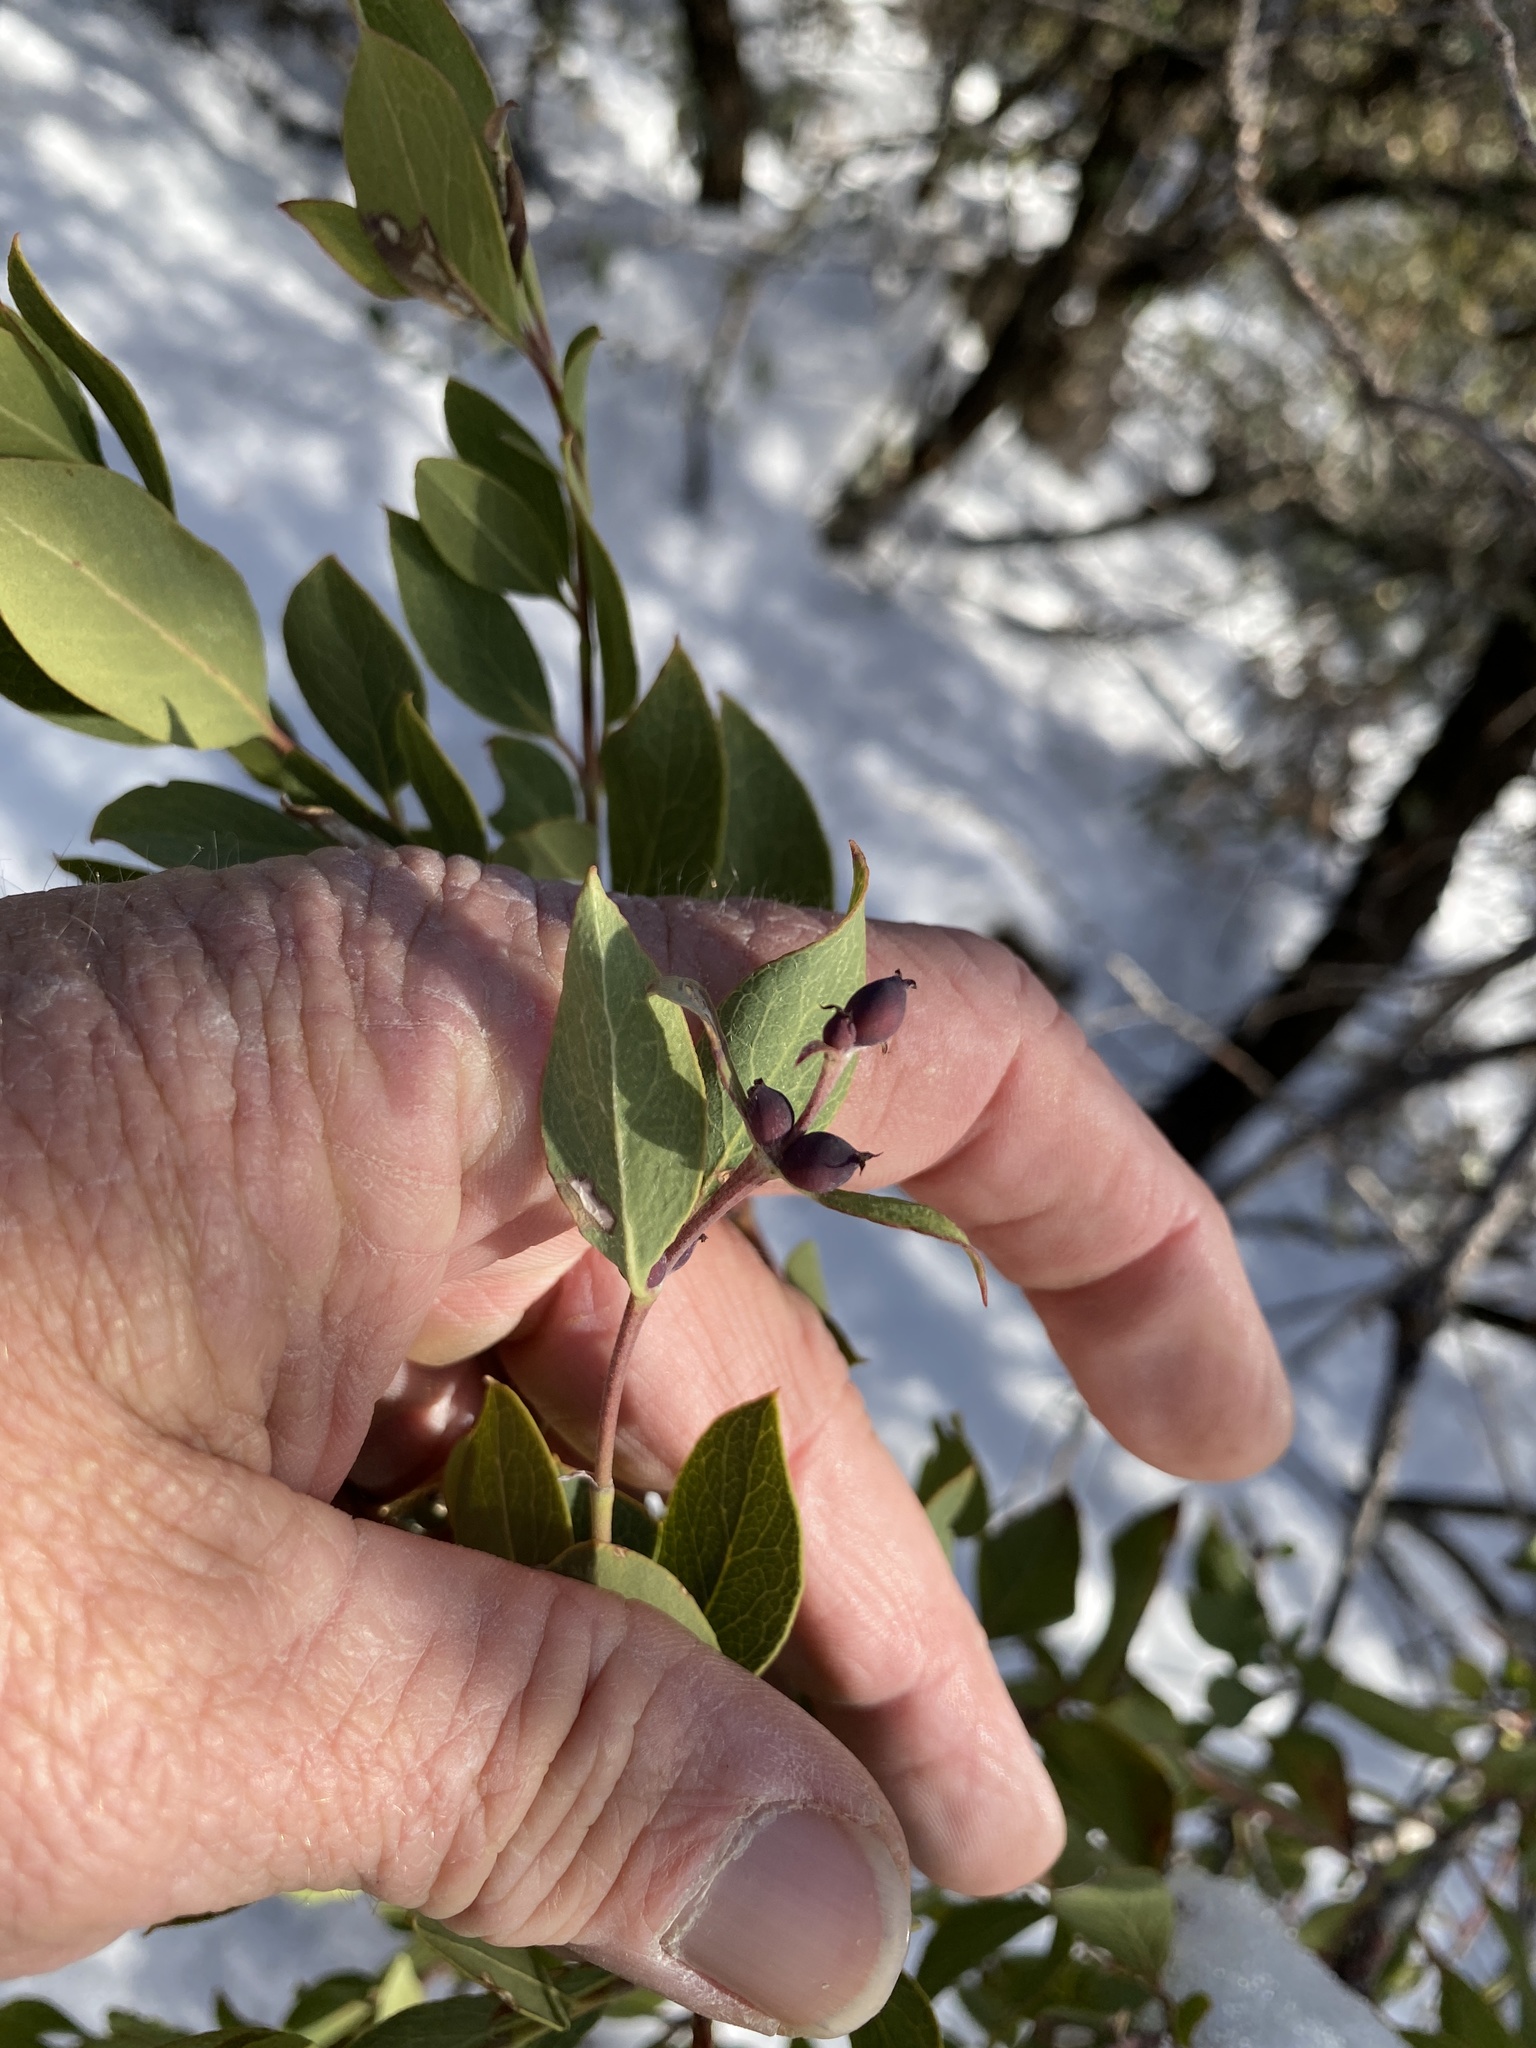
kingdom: Plantae
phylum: Tracheophyta
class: Magnoliopsida
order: Garryales
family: Garryaceae
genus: Garrya
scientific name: Garrya wrightii
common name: Wright's silktassel
